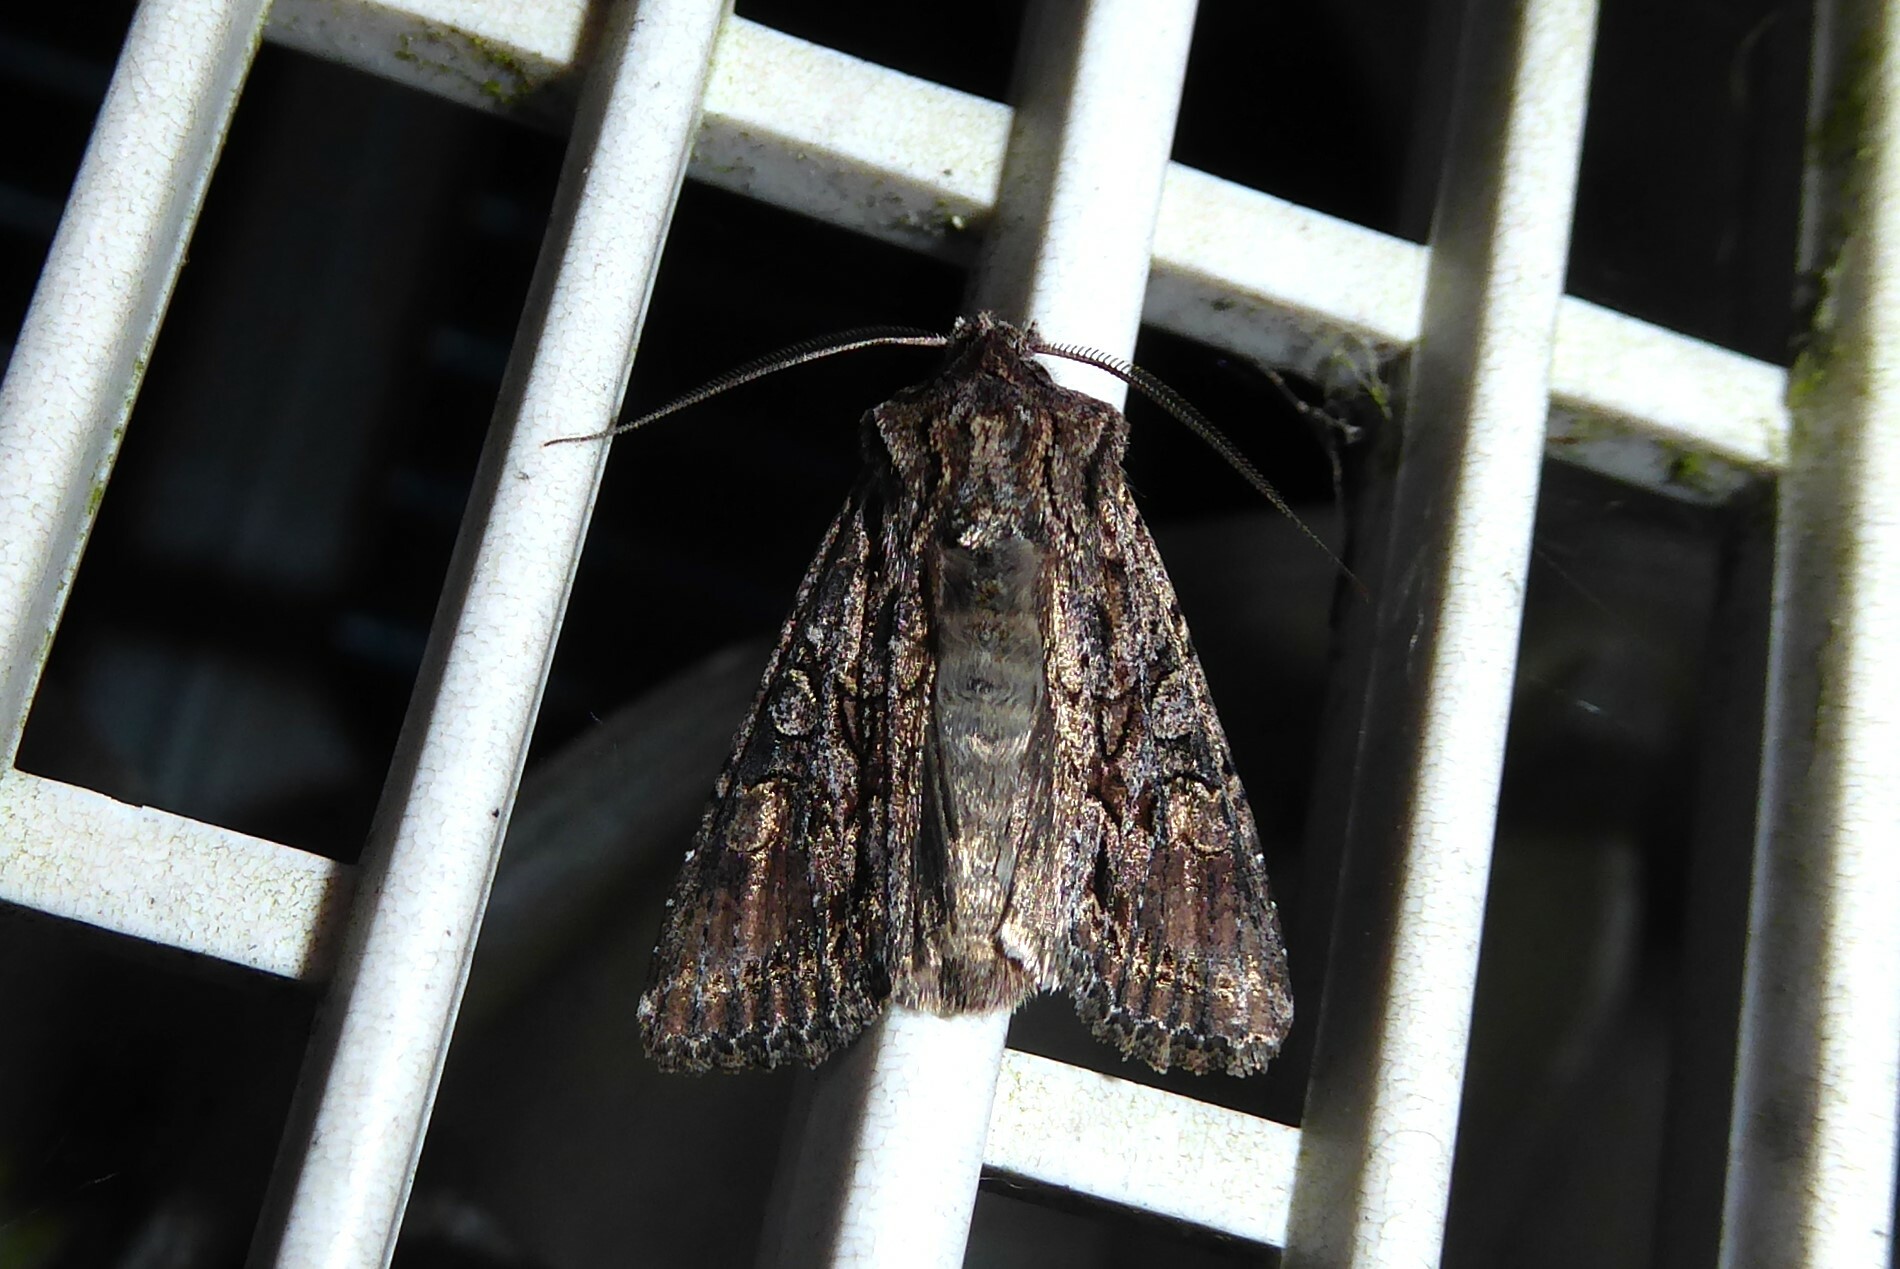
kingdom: Animalia
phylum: Arthropoda
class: Insecta
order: Lepidoptera
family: Noctuidae
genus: Ichneutica
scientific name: Ichneutica mutans
